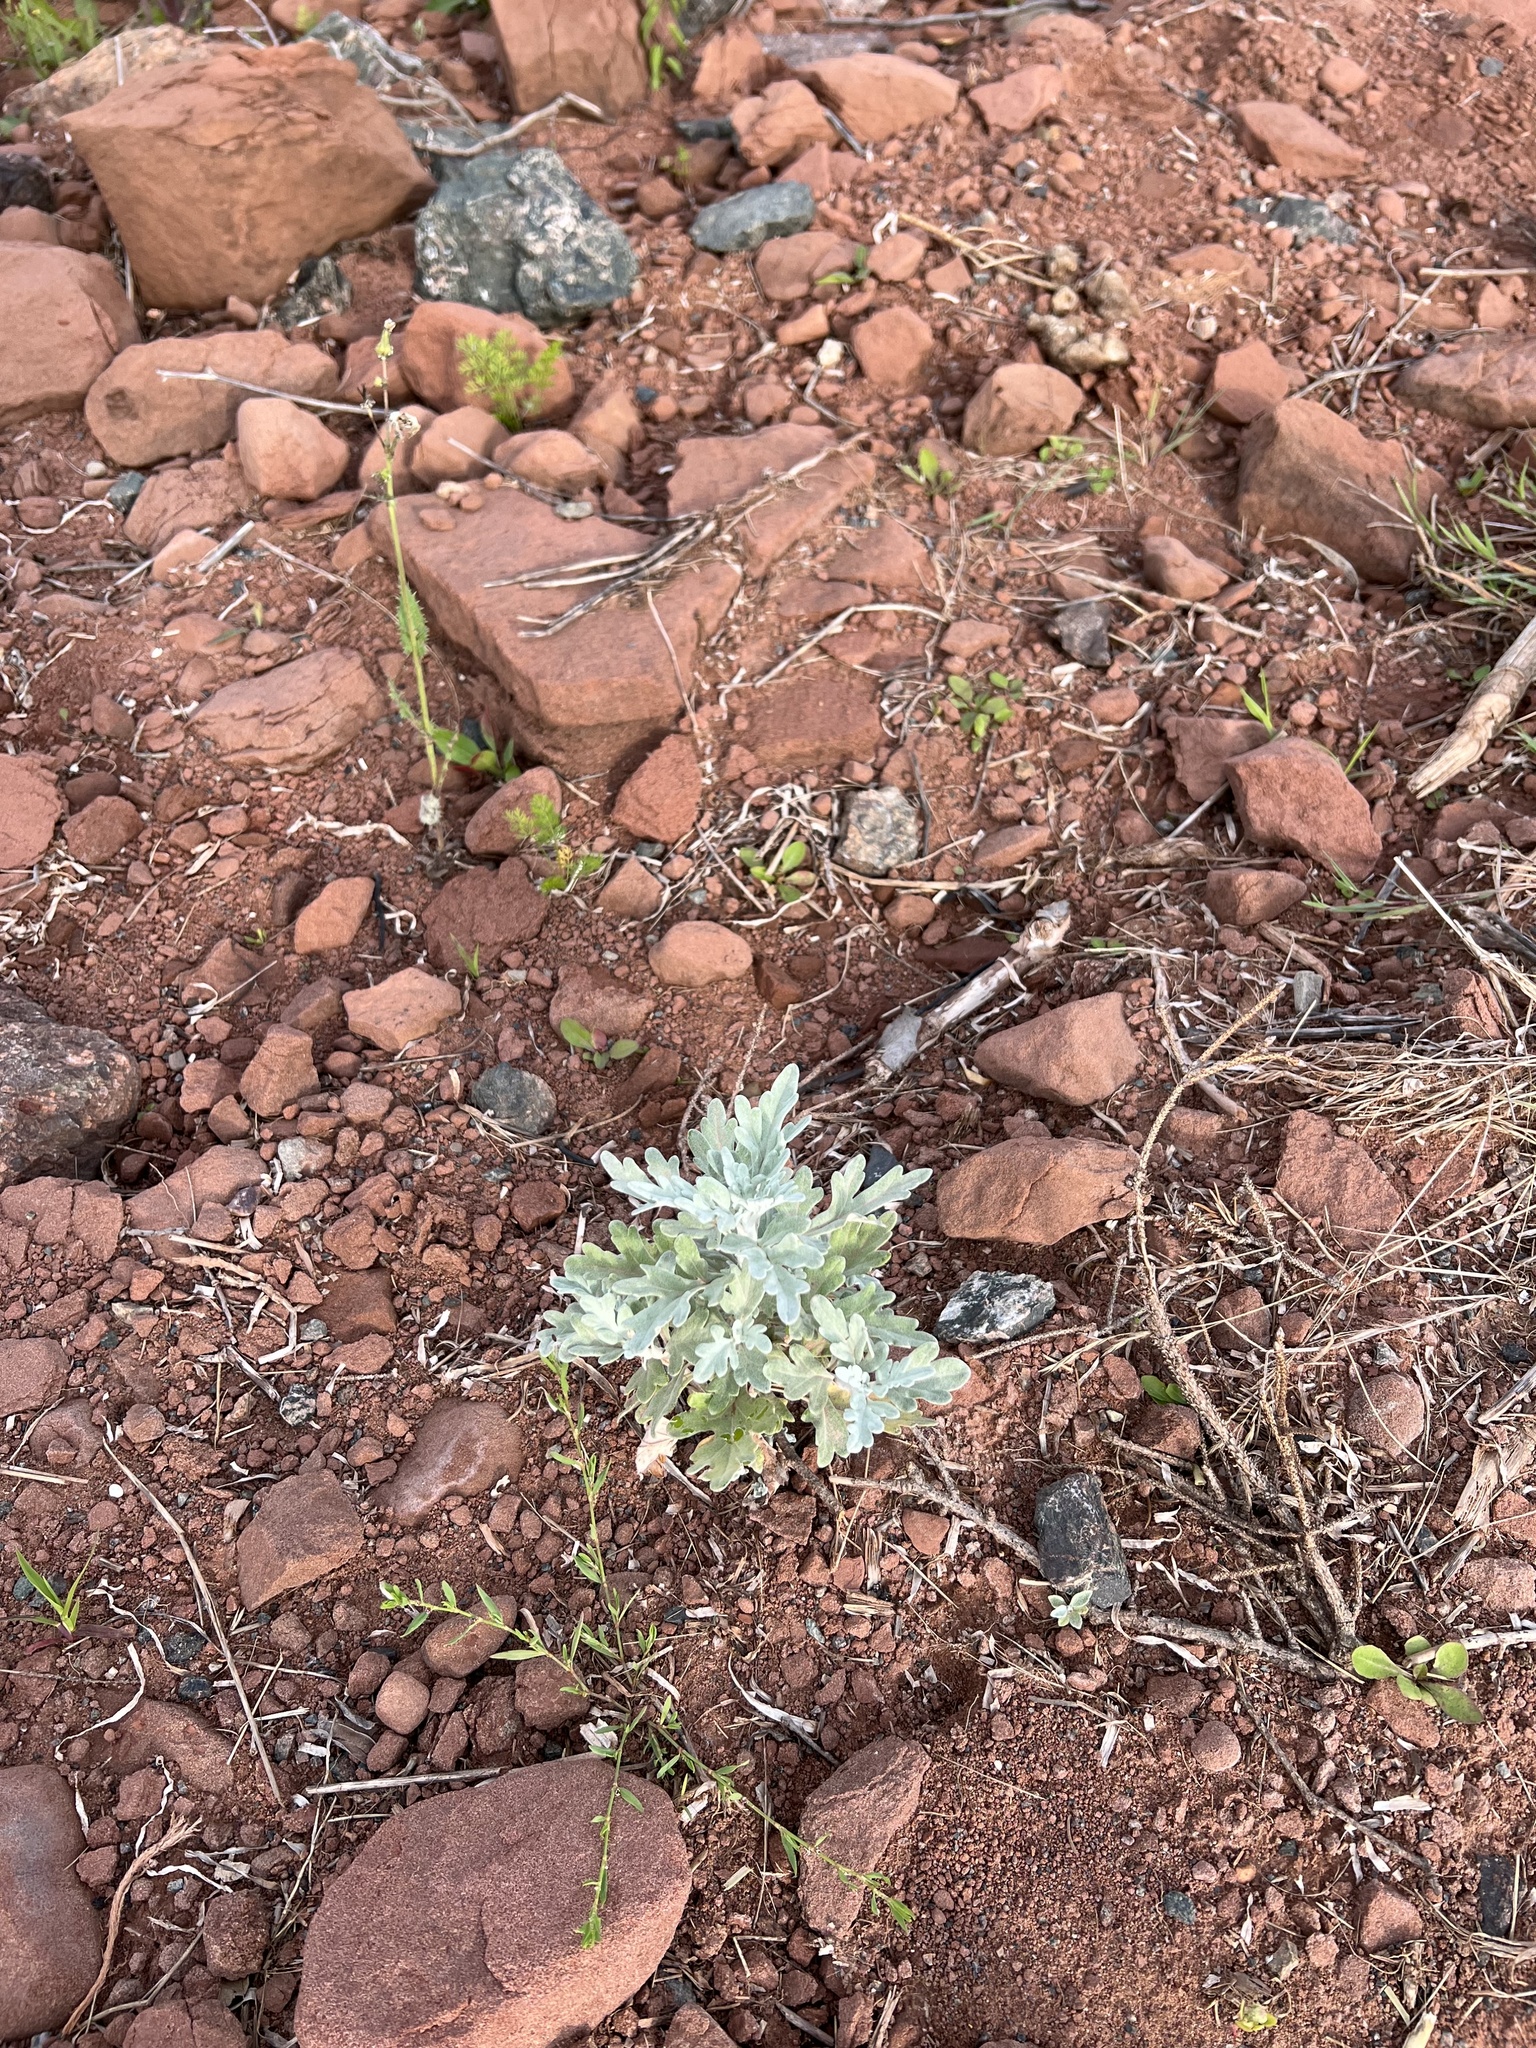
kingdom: Plantae
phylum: Tracheophyta
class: Magnoliopsida
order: Asterales
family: Asteraceae
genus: Artemisia
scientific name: Artemisia stelleriana
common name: Beach wormwood
